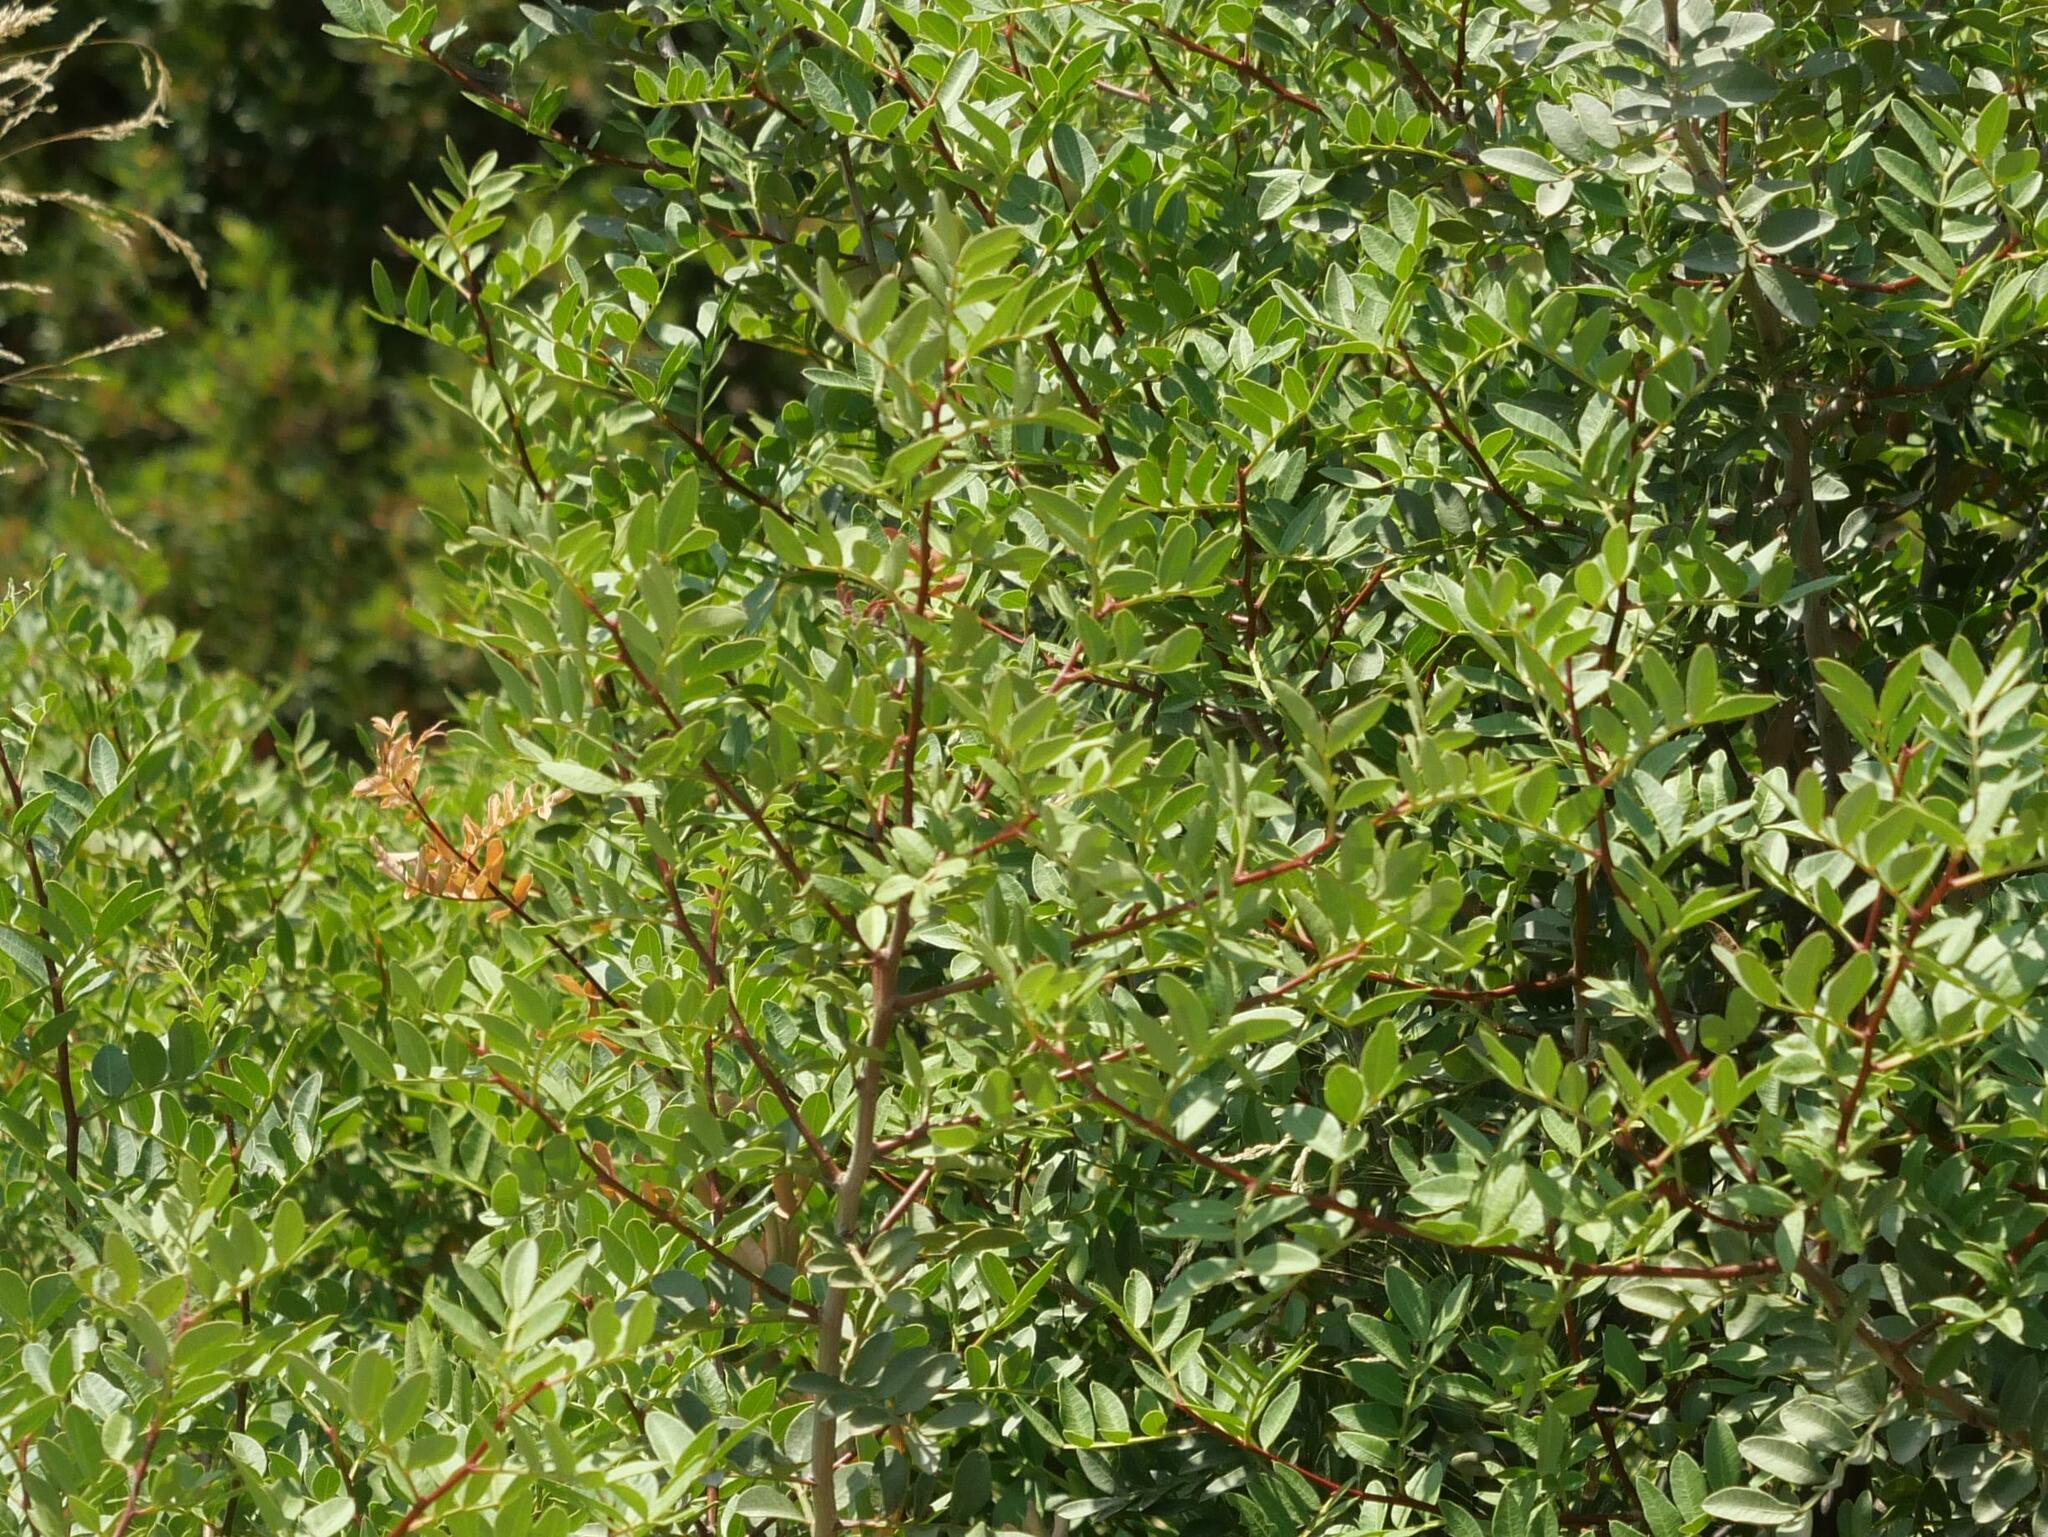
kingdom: Plantae
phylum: Tracheophyta
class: Magnoliopsida
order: Sapindales
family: Anacardiaceae
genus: Pistacia
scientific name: Pistacia lentiscus
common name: Lentisk
